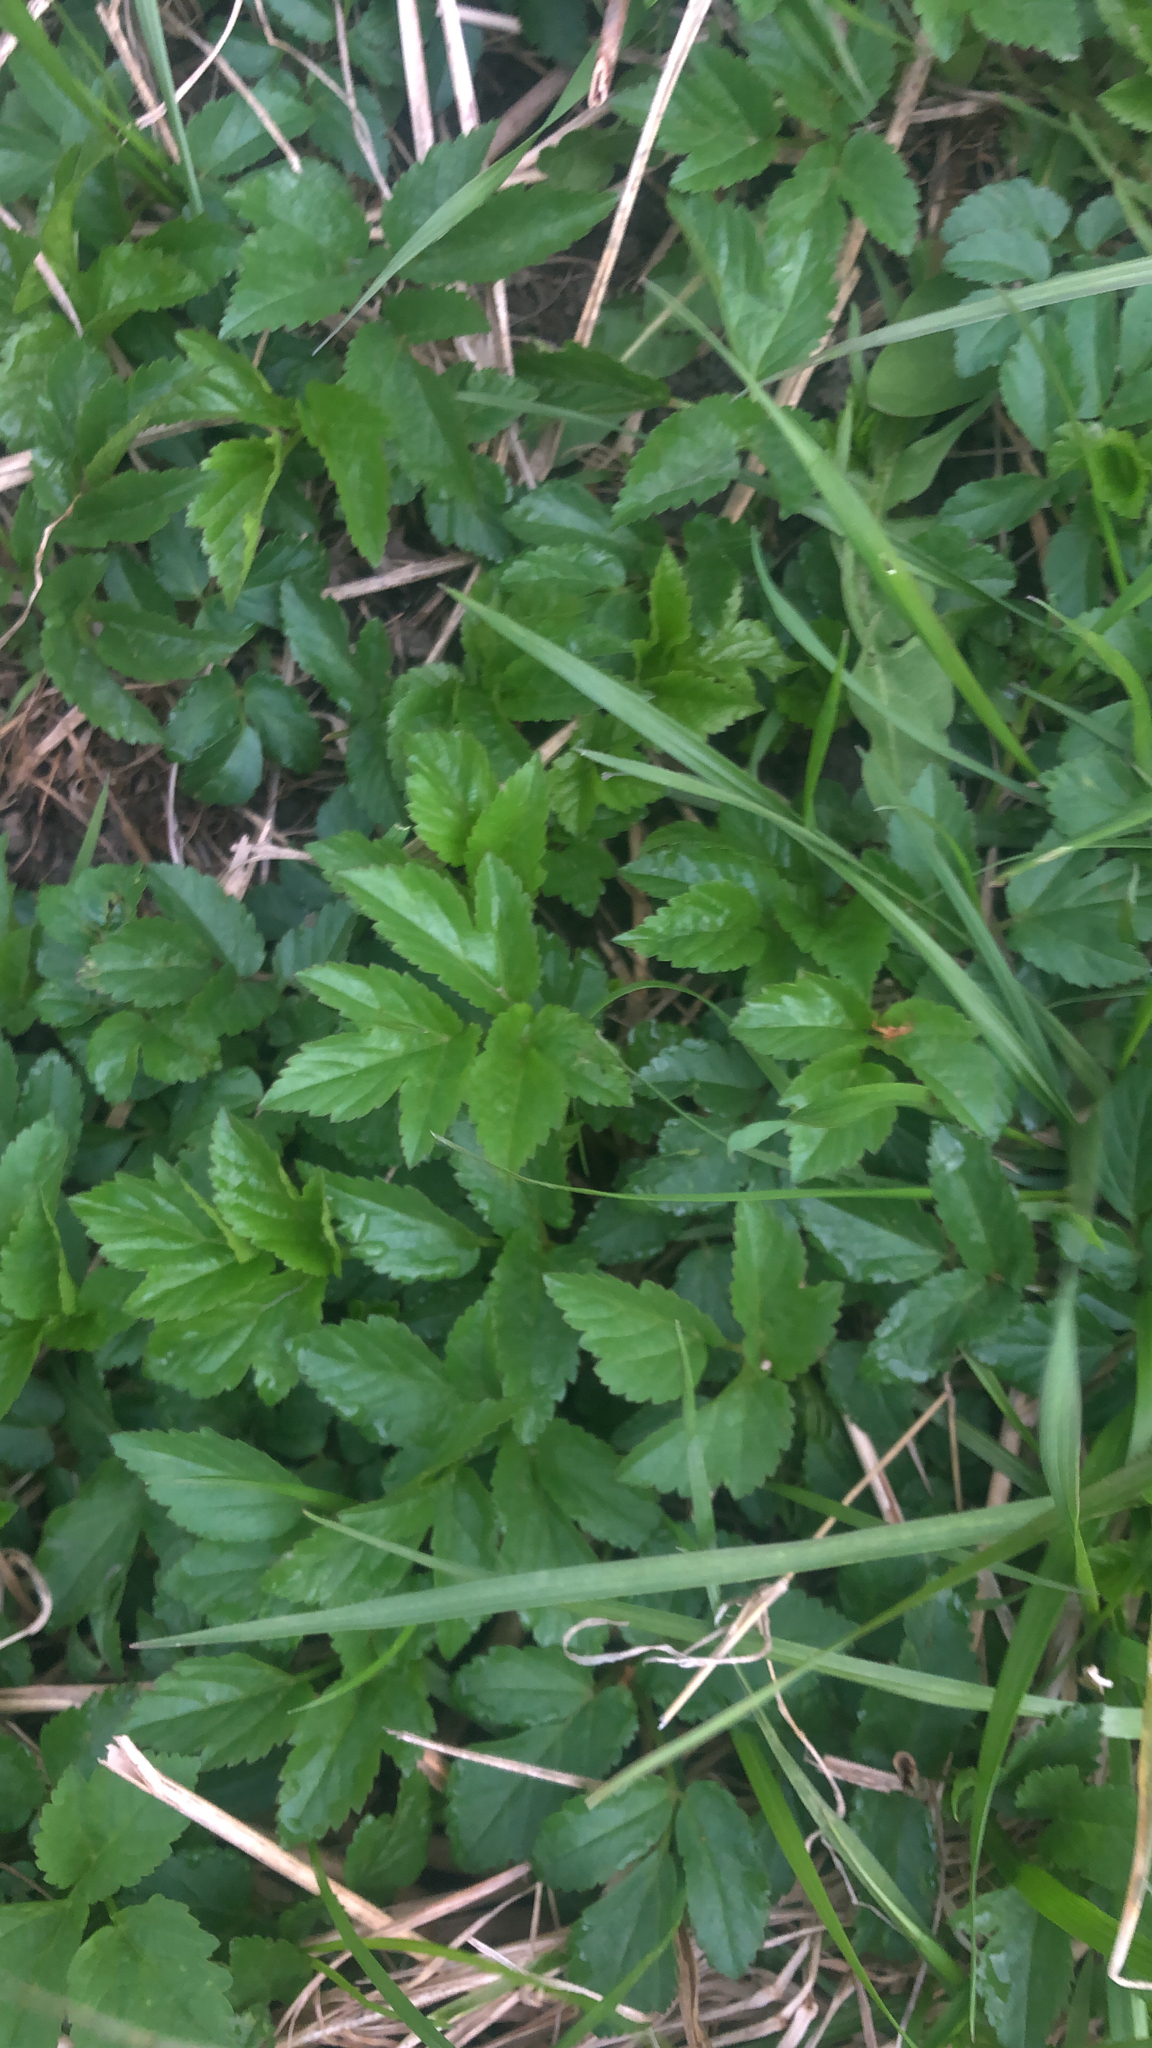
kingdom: Plantae
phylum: Tracheophyta
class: Magnoliopsida
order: Apiales
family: Apiaceae
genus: Aegopodium
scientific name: Aegopodium podagraria
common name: Ground-elder
